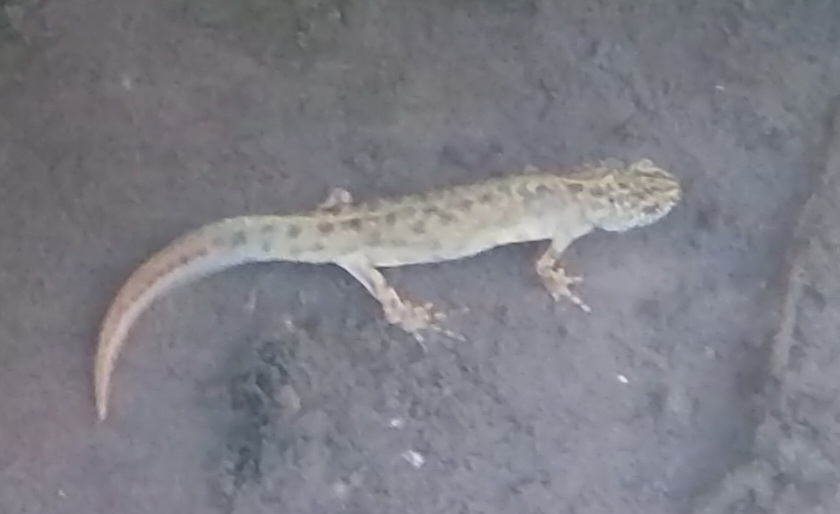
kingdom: Animalia
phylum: Chordata
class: Amphibia
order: Caudata
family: Salamandridae
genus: Triturus
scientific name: Triturus carnifex
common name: Italian crested newt
